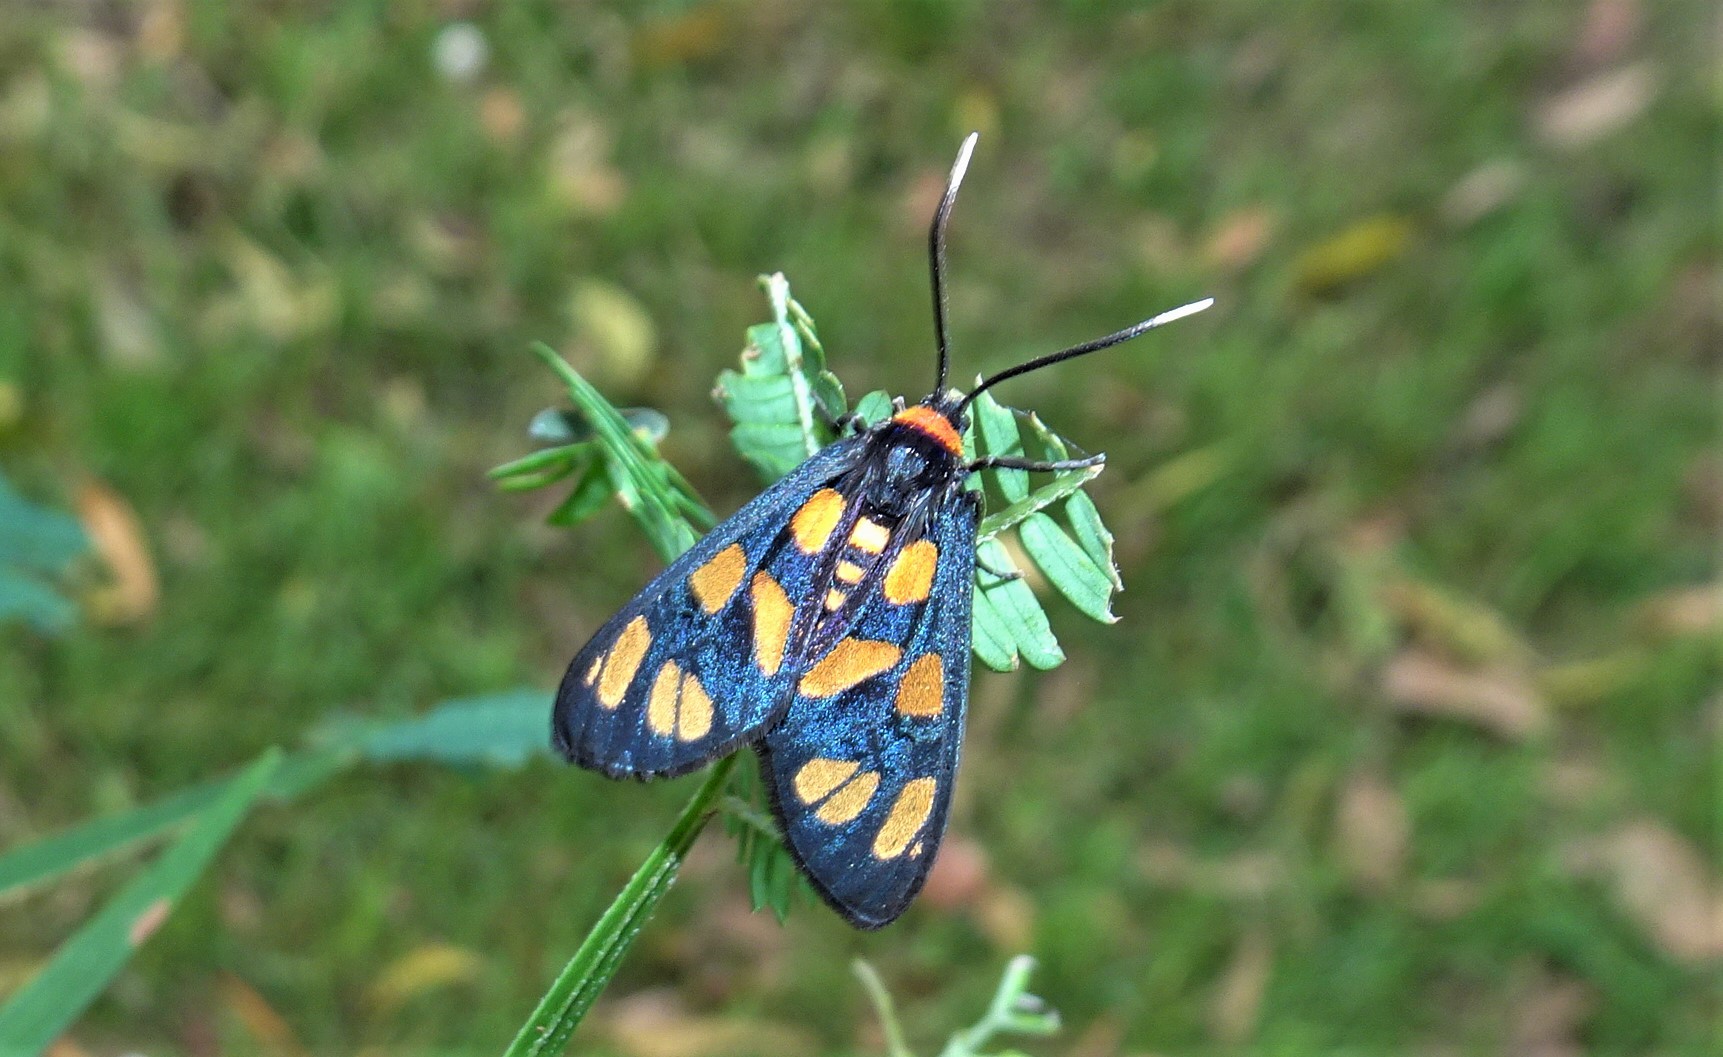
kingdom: Animalia
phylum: Arthropoda
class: Insecta
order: Lepidoptera
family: Erebidae
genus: Amata
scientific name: Amata nigriceps
